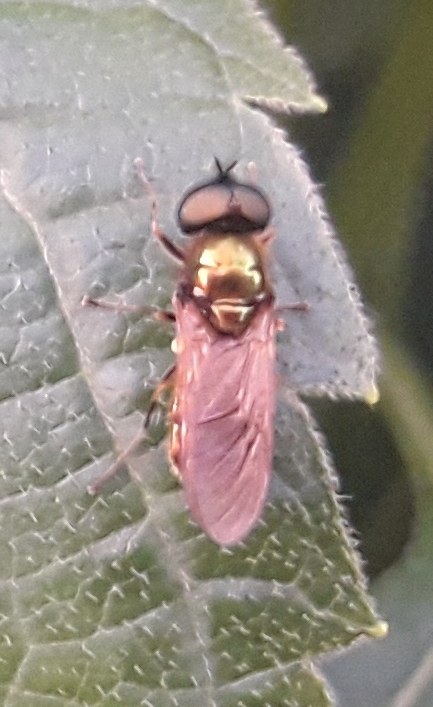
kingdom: Animalia
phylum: Arthropoda
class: Insecta
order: Diptera
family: Stratiomyidae
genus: Chloromyia
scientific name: Chloromyia formosa
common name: Soldier fly
